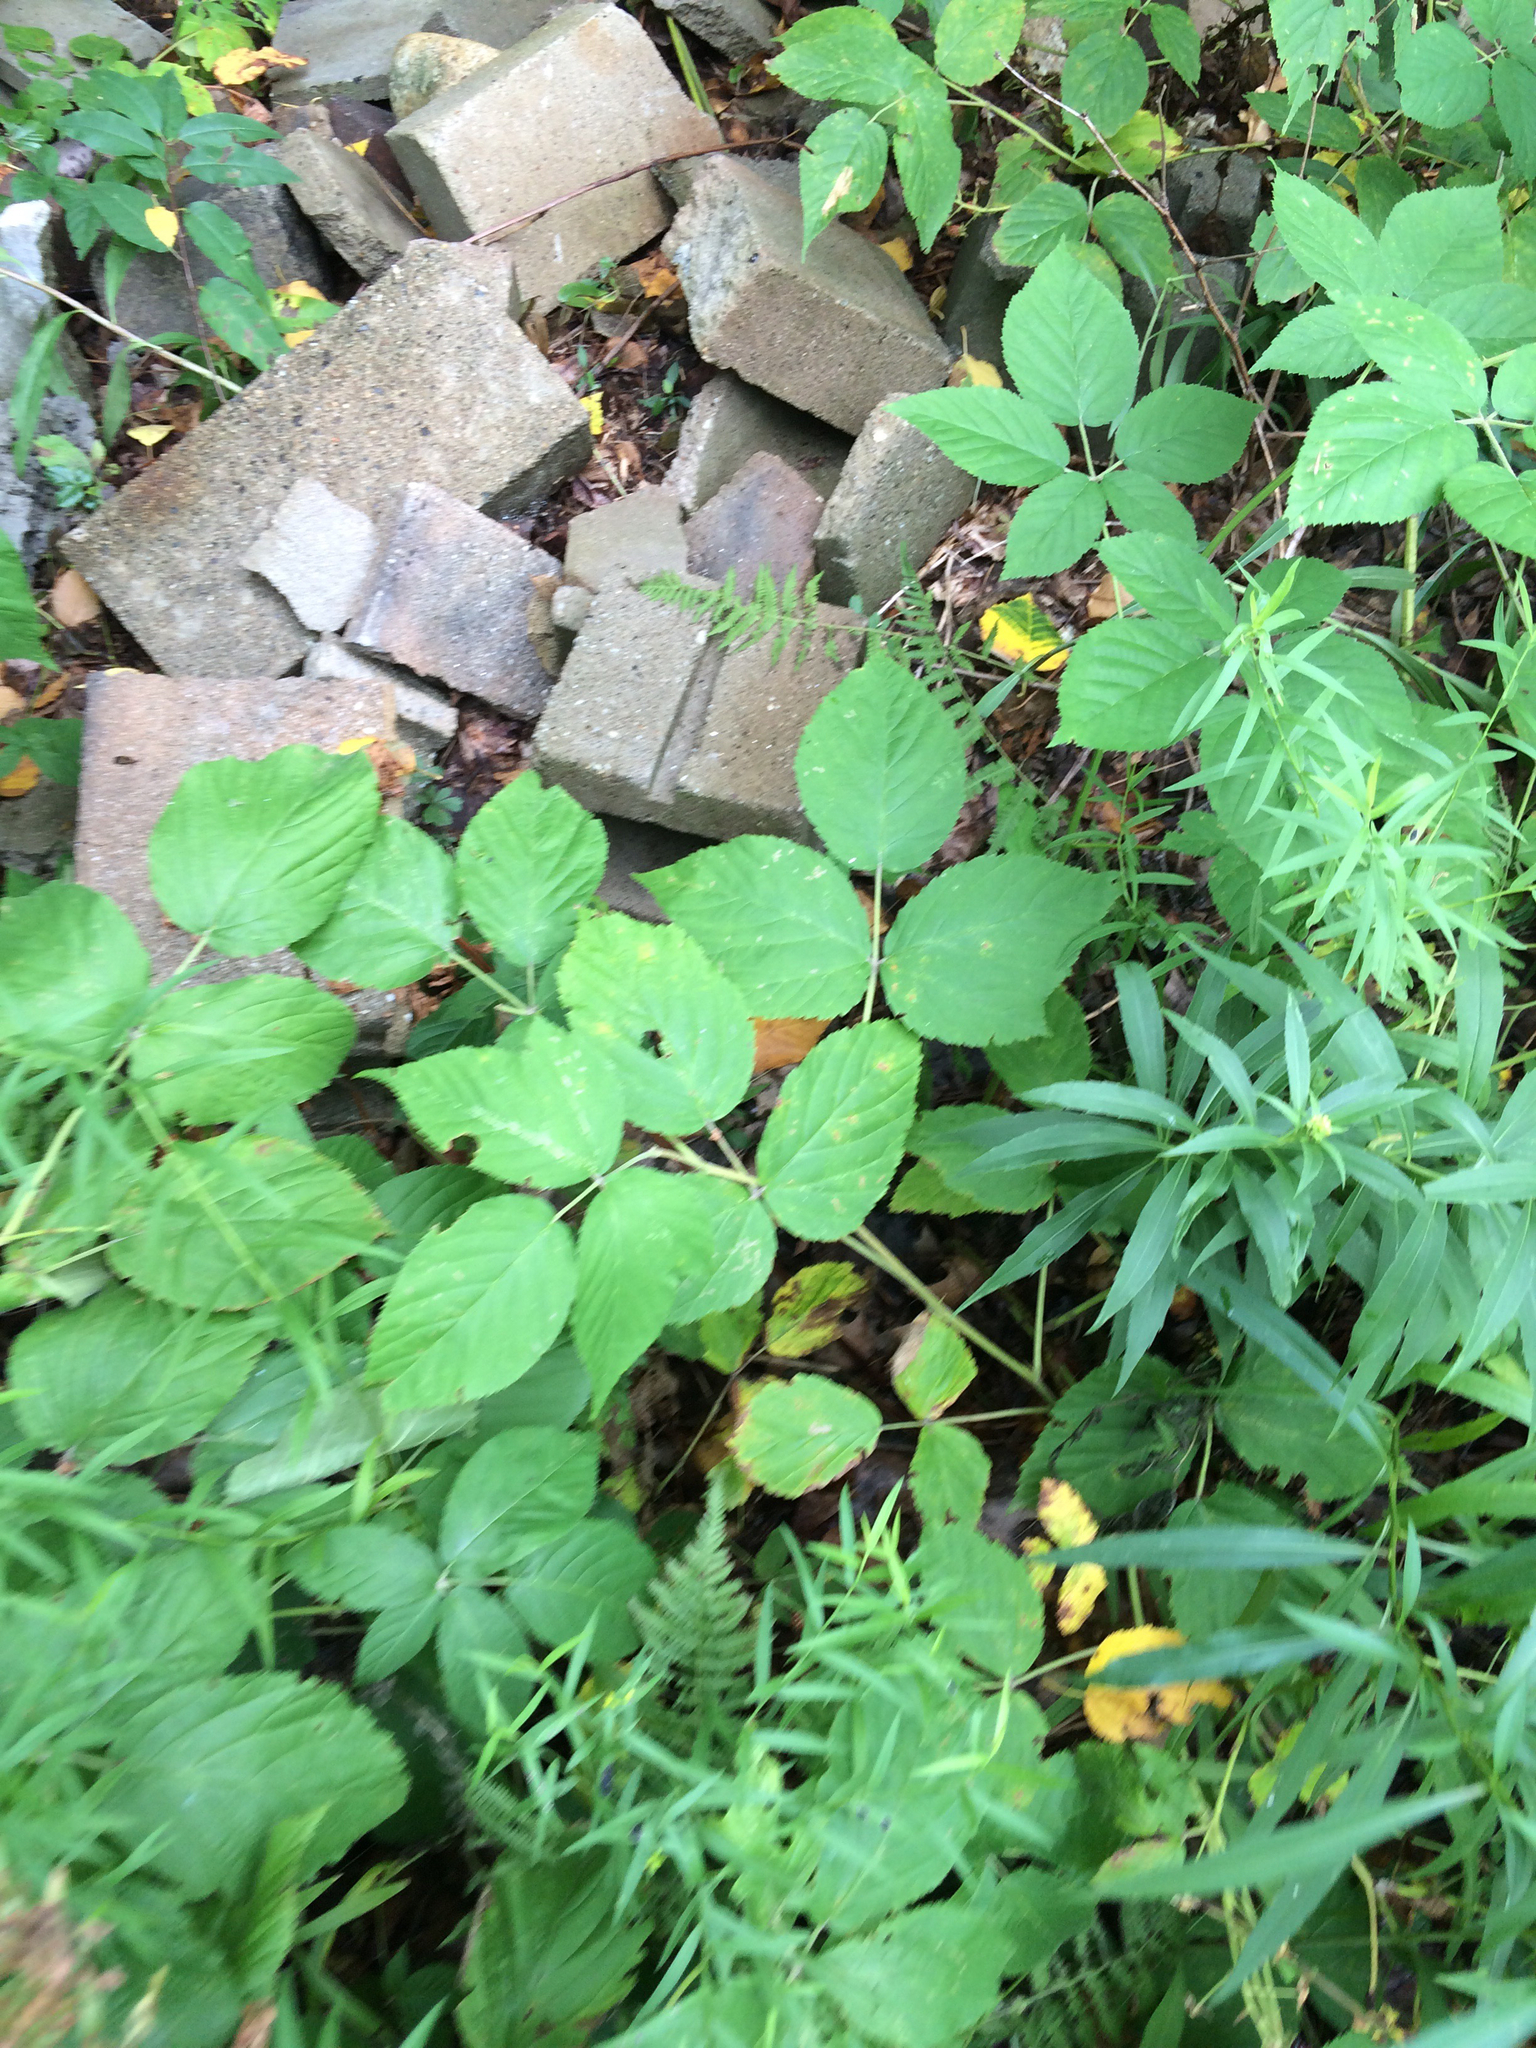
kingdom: Plantae
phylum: Tracheophyta
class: Magnoliopsida
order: Rosales
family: Rosaceae
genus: Rubus
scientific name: Rubus allegheniensis
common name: Allegheny blackberry
